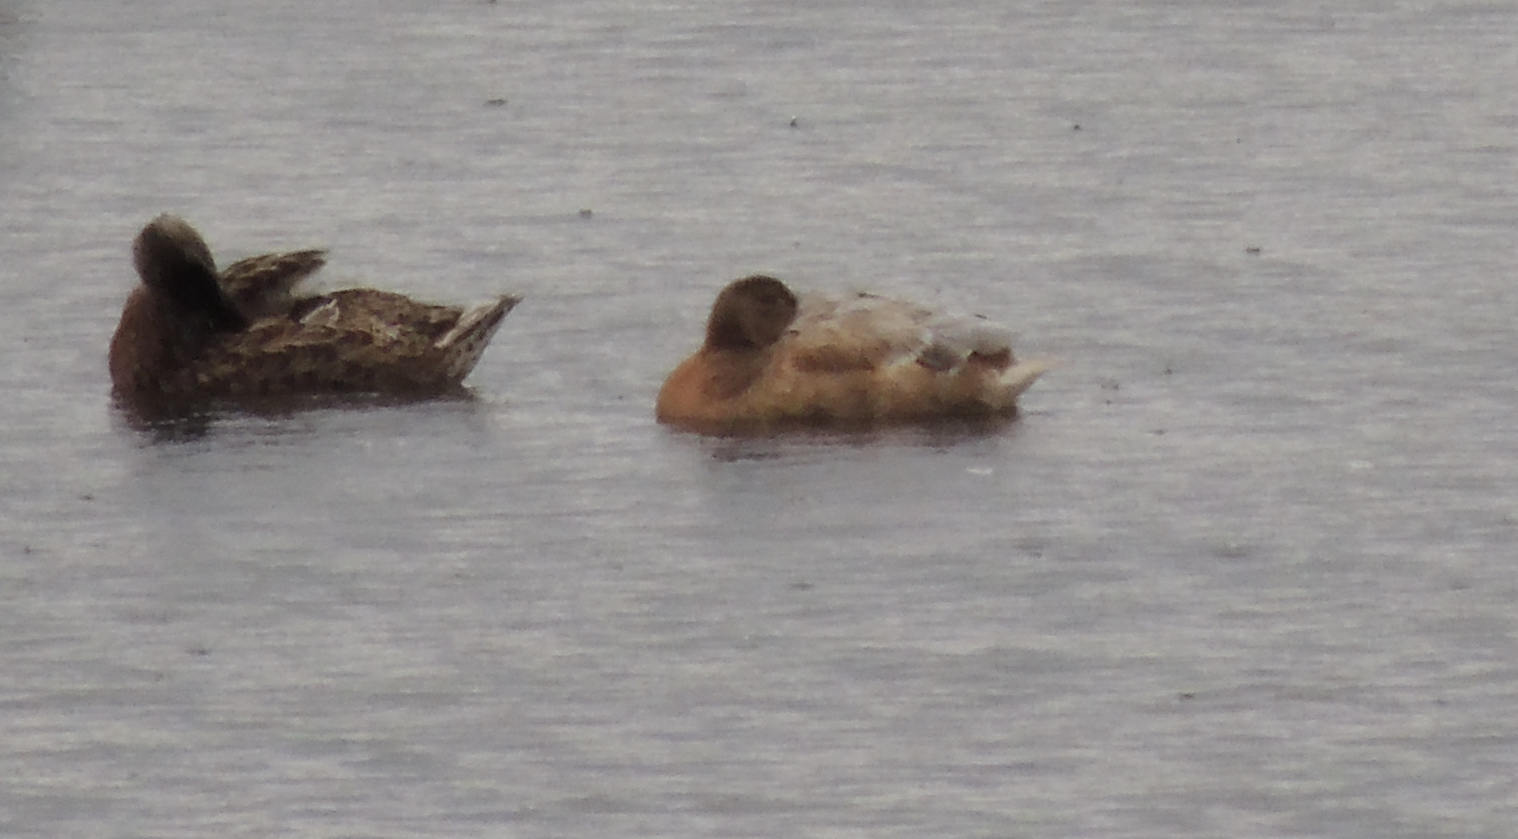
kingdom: Animalia
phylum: Chordata
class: Aves
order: Anseriformes
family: Anatidae
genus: Anas
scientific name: Anas platyrhynchos
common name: Mallard
